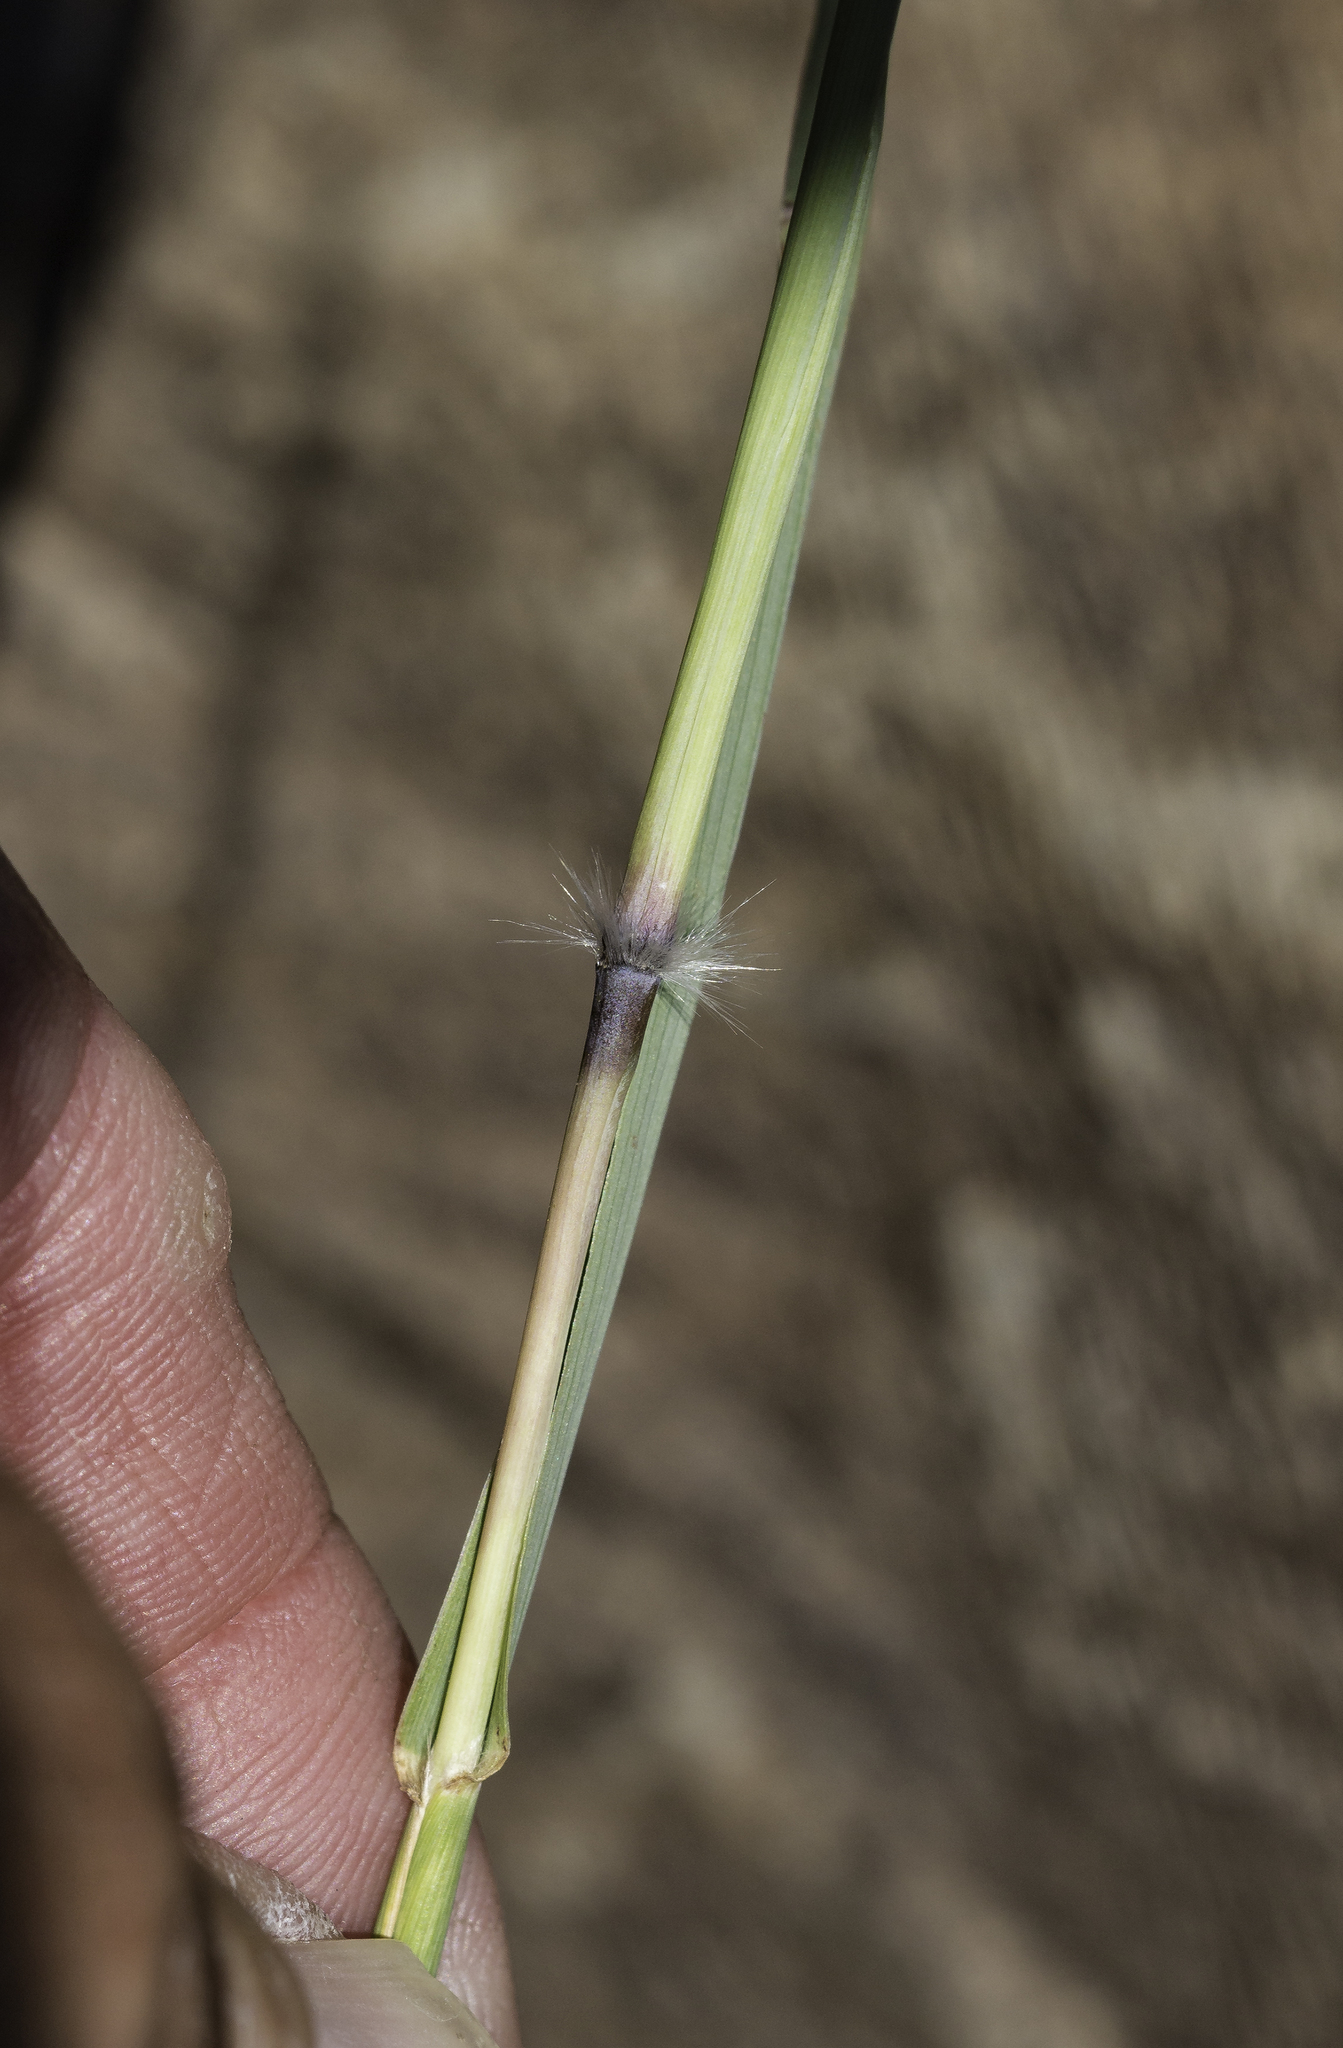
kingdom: Plantae
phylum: Tracheophyta
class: Liliopsida
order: Poales
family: Poaceae
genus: Bothriochloa
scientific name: Bothriochloa springfieldii
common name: Springfield bluestem
